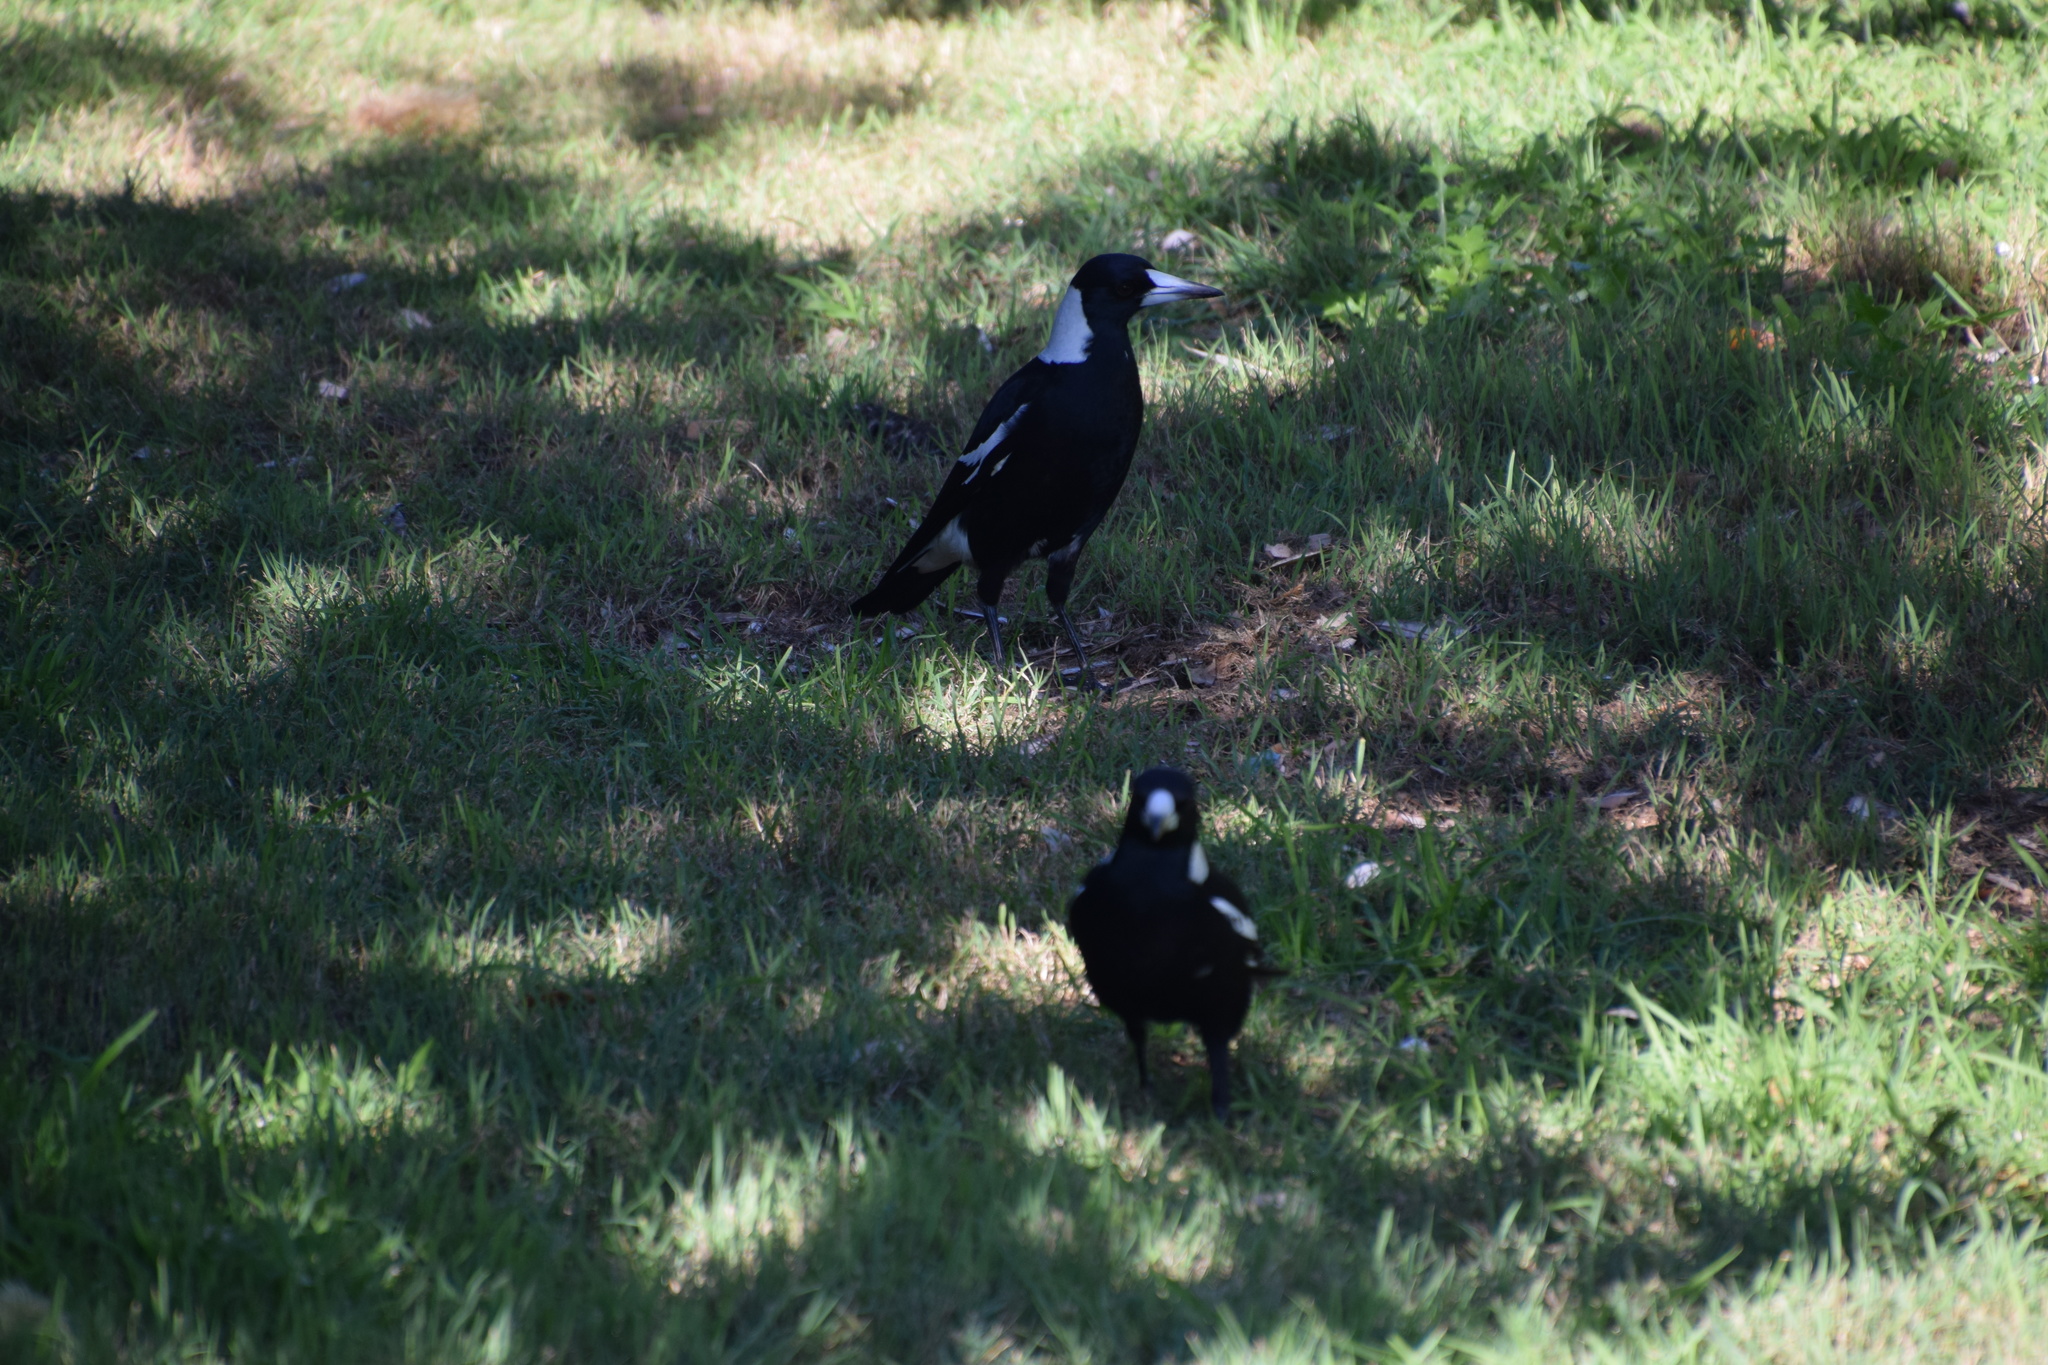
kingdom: Animalia
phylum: Chordata
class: Aves
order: Passeriformes
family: Cracticidae
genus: Gymnorhina
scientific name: Gymnorhina tibicen
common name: Australian magpie
